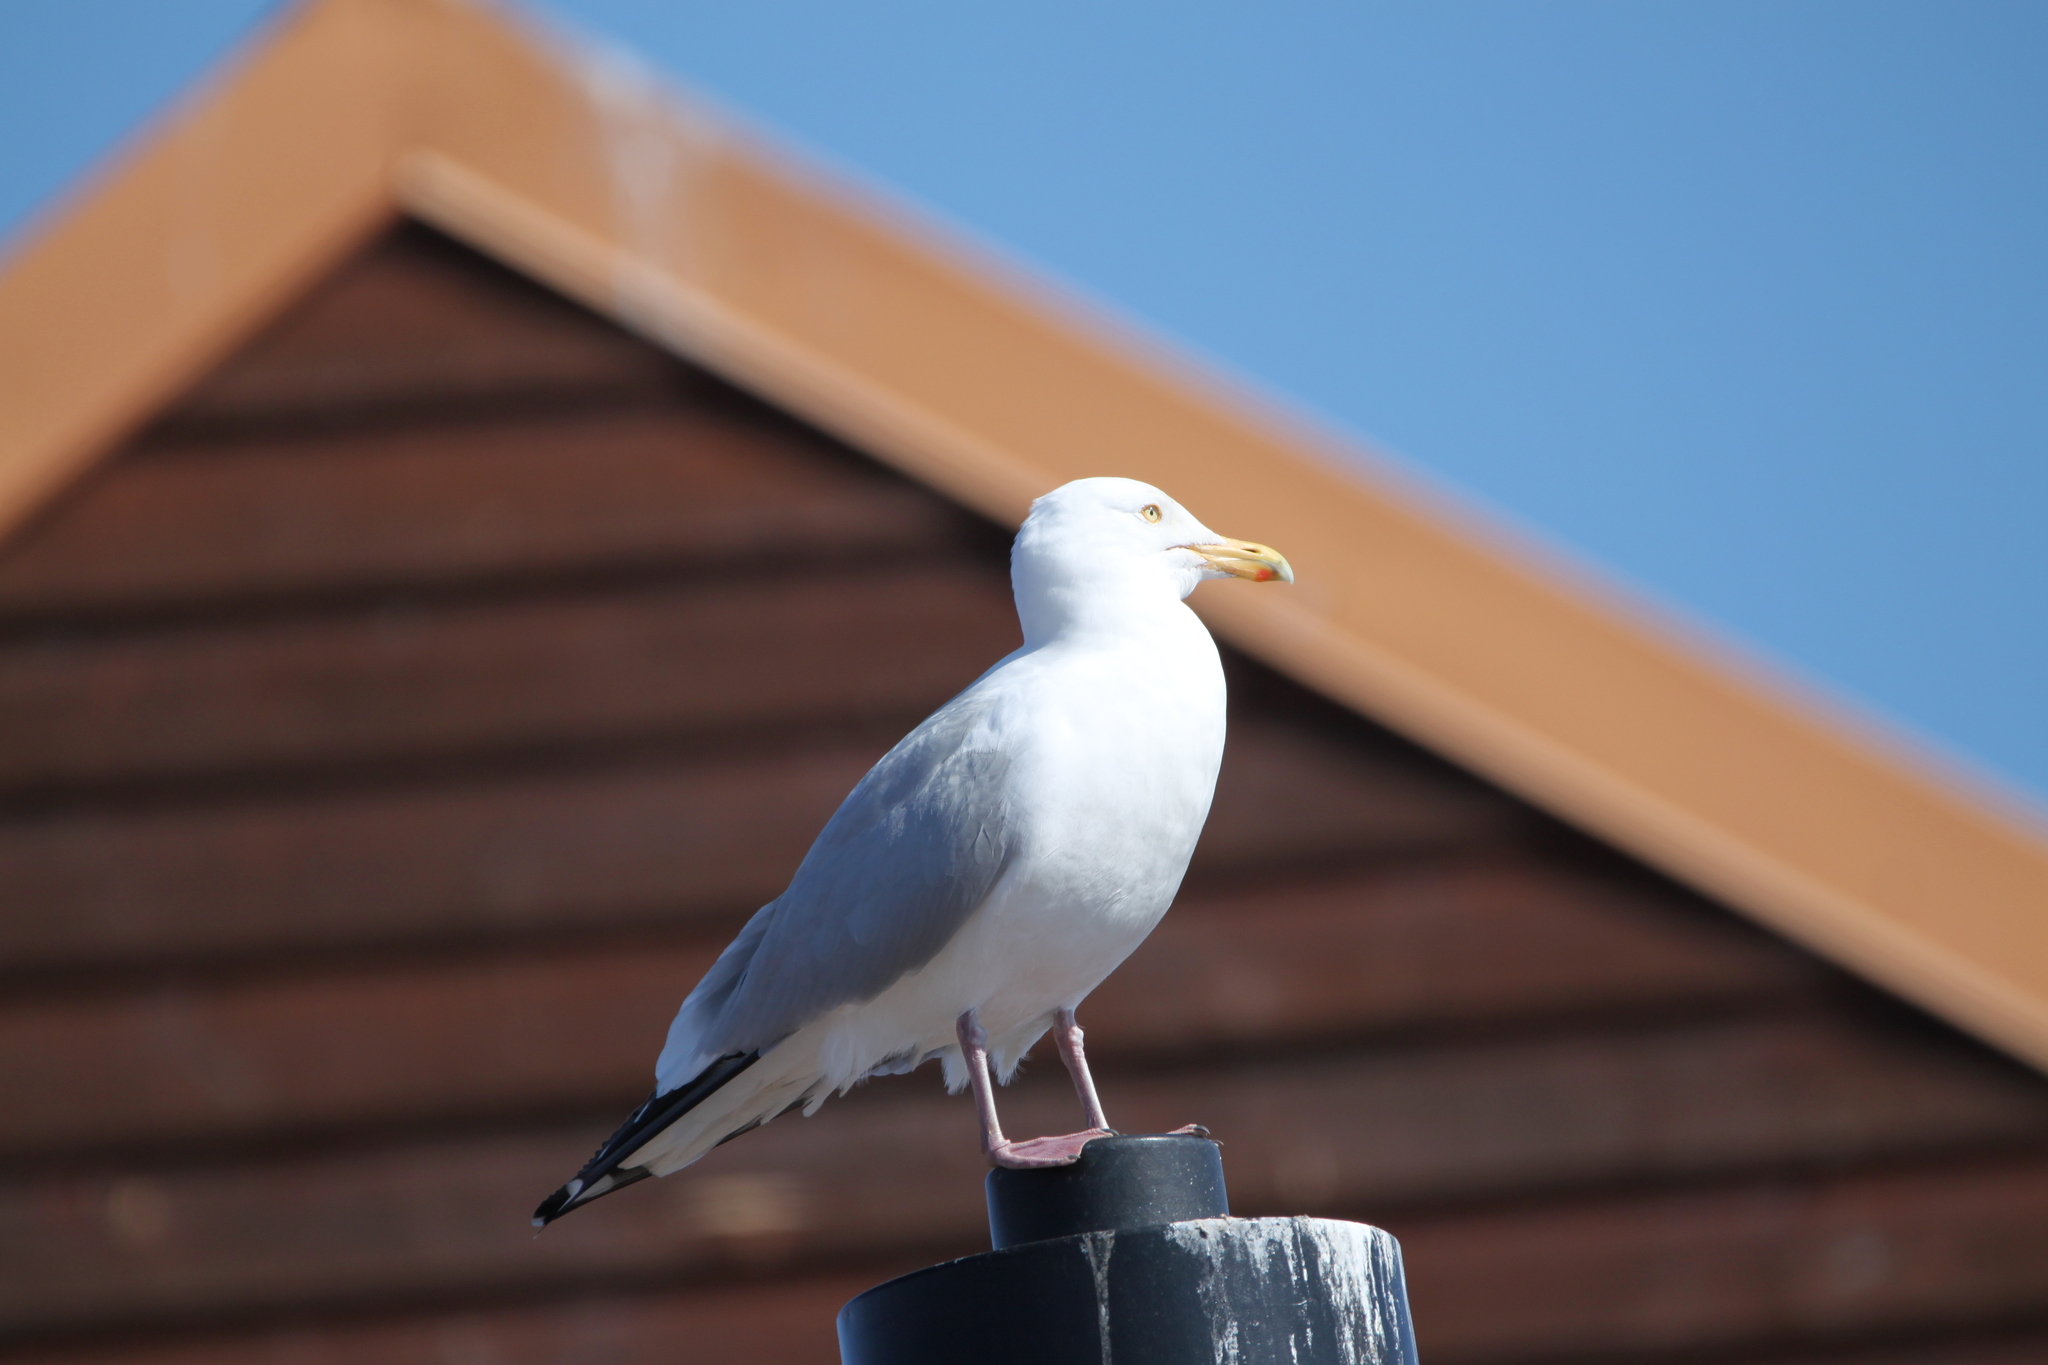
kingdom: Animalia
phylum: Chordata
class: Aves
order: Charadriiformes
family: Laridae
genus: Larus
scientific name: Larus argentatus
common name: Herring gull
